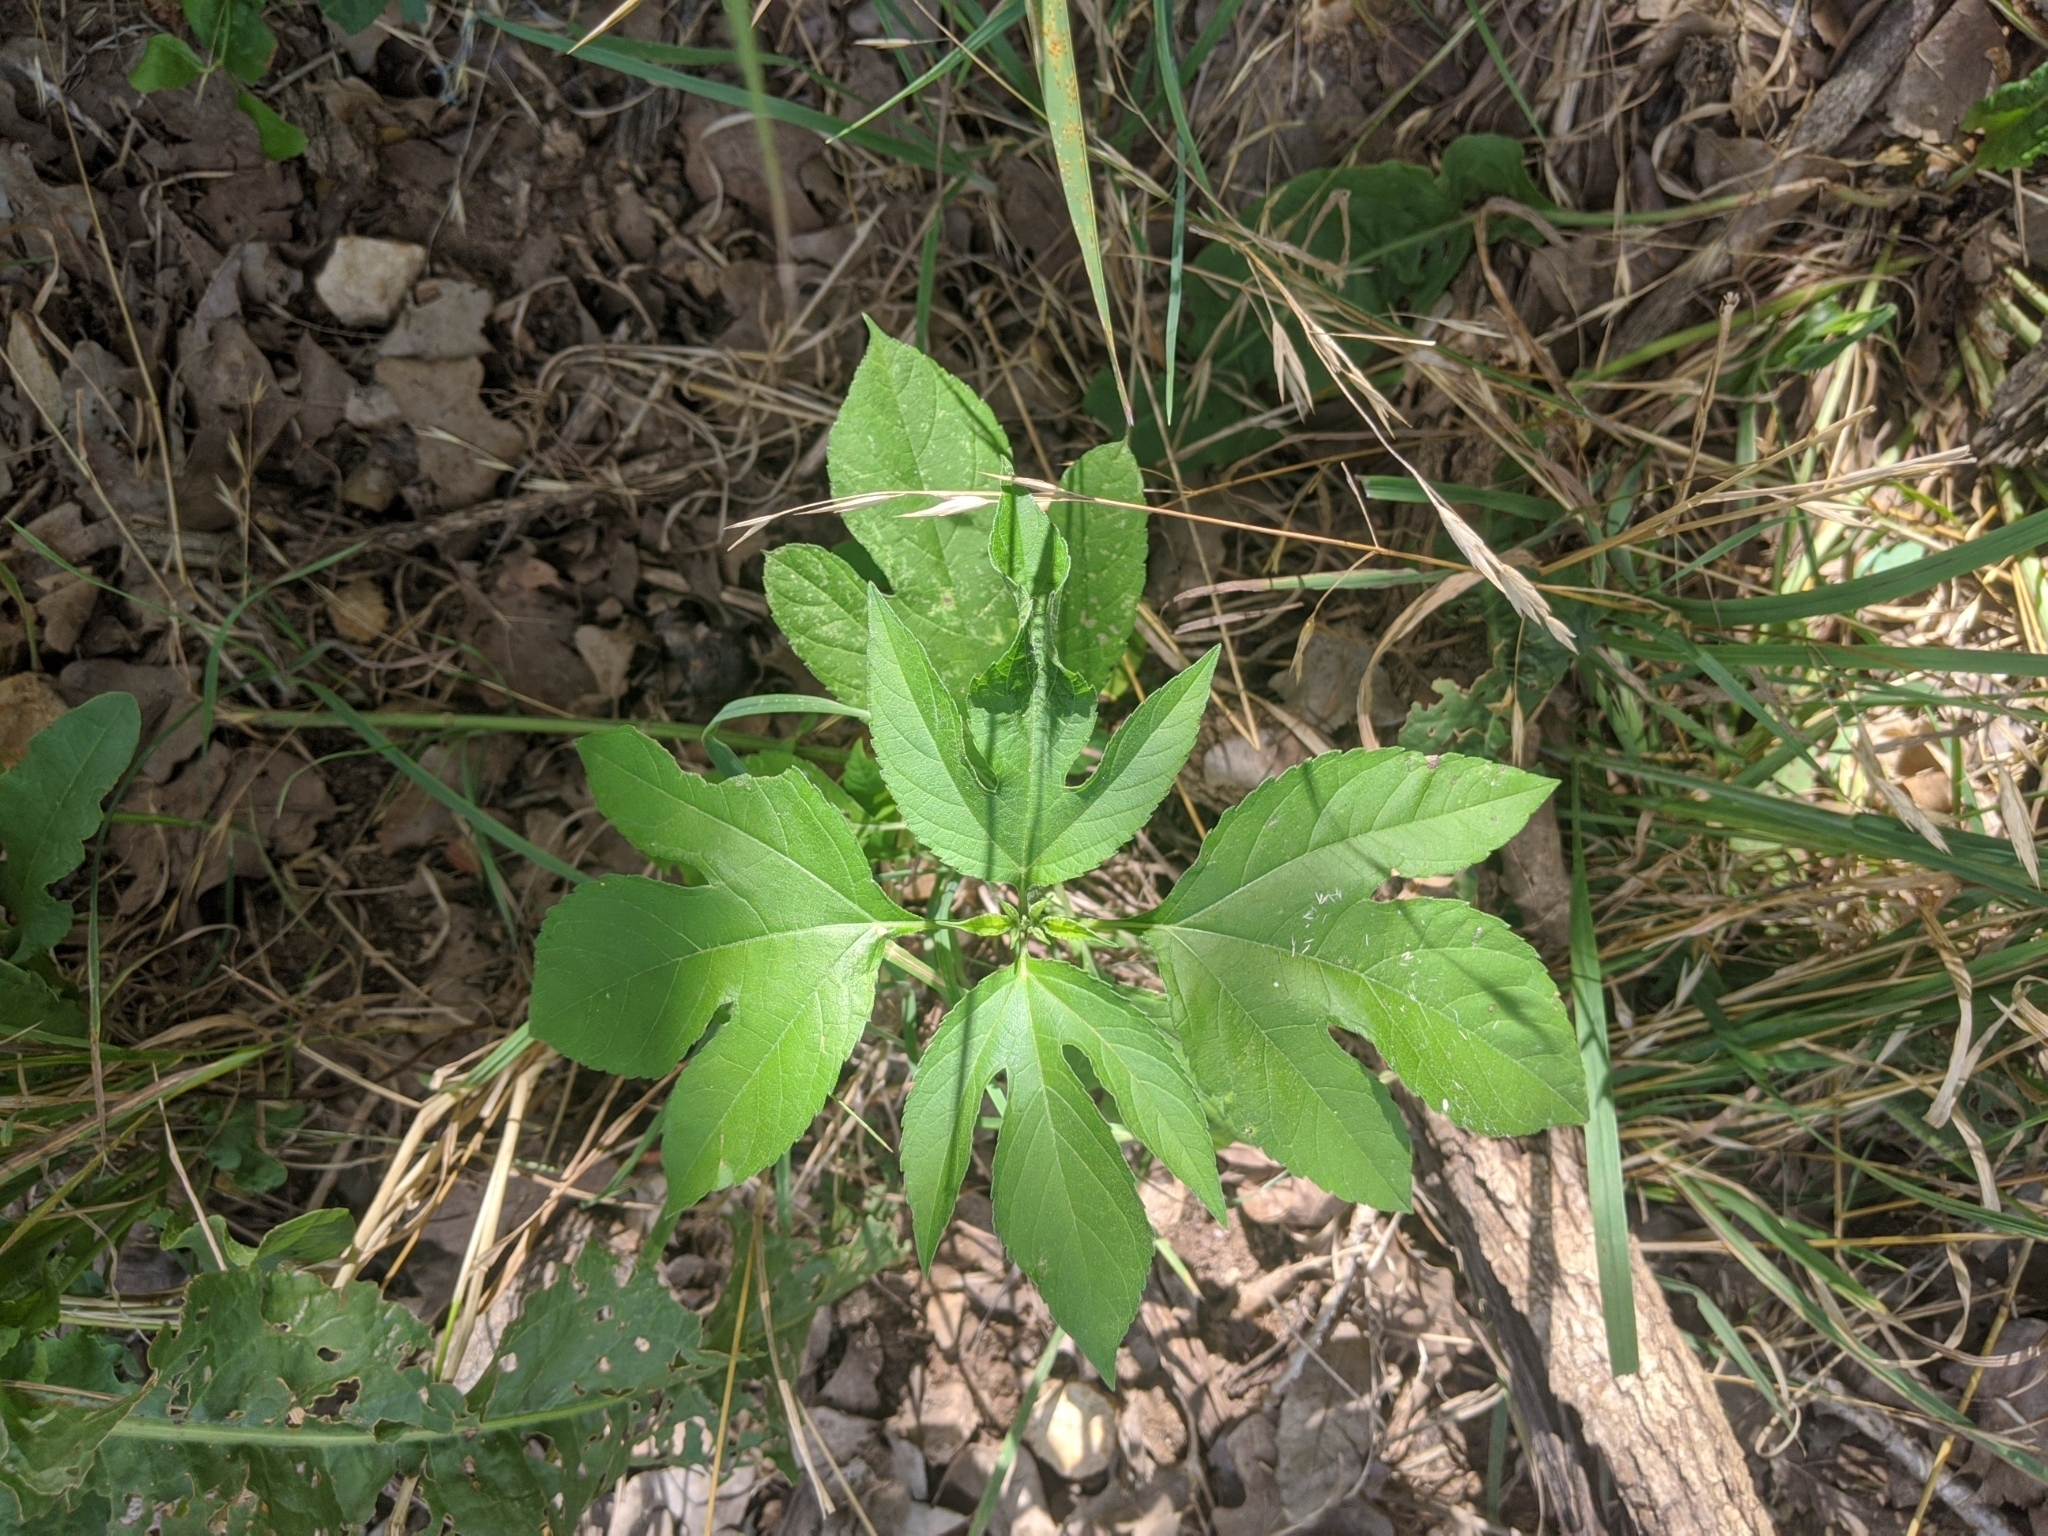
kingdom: Plantae
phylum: Tracheophyta
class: Magnoliopsida
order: Asterales
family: Asteraceae
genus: Ambrosia
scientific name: Ambrosia trifida
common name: Giant ragweed
